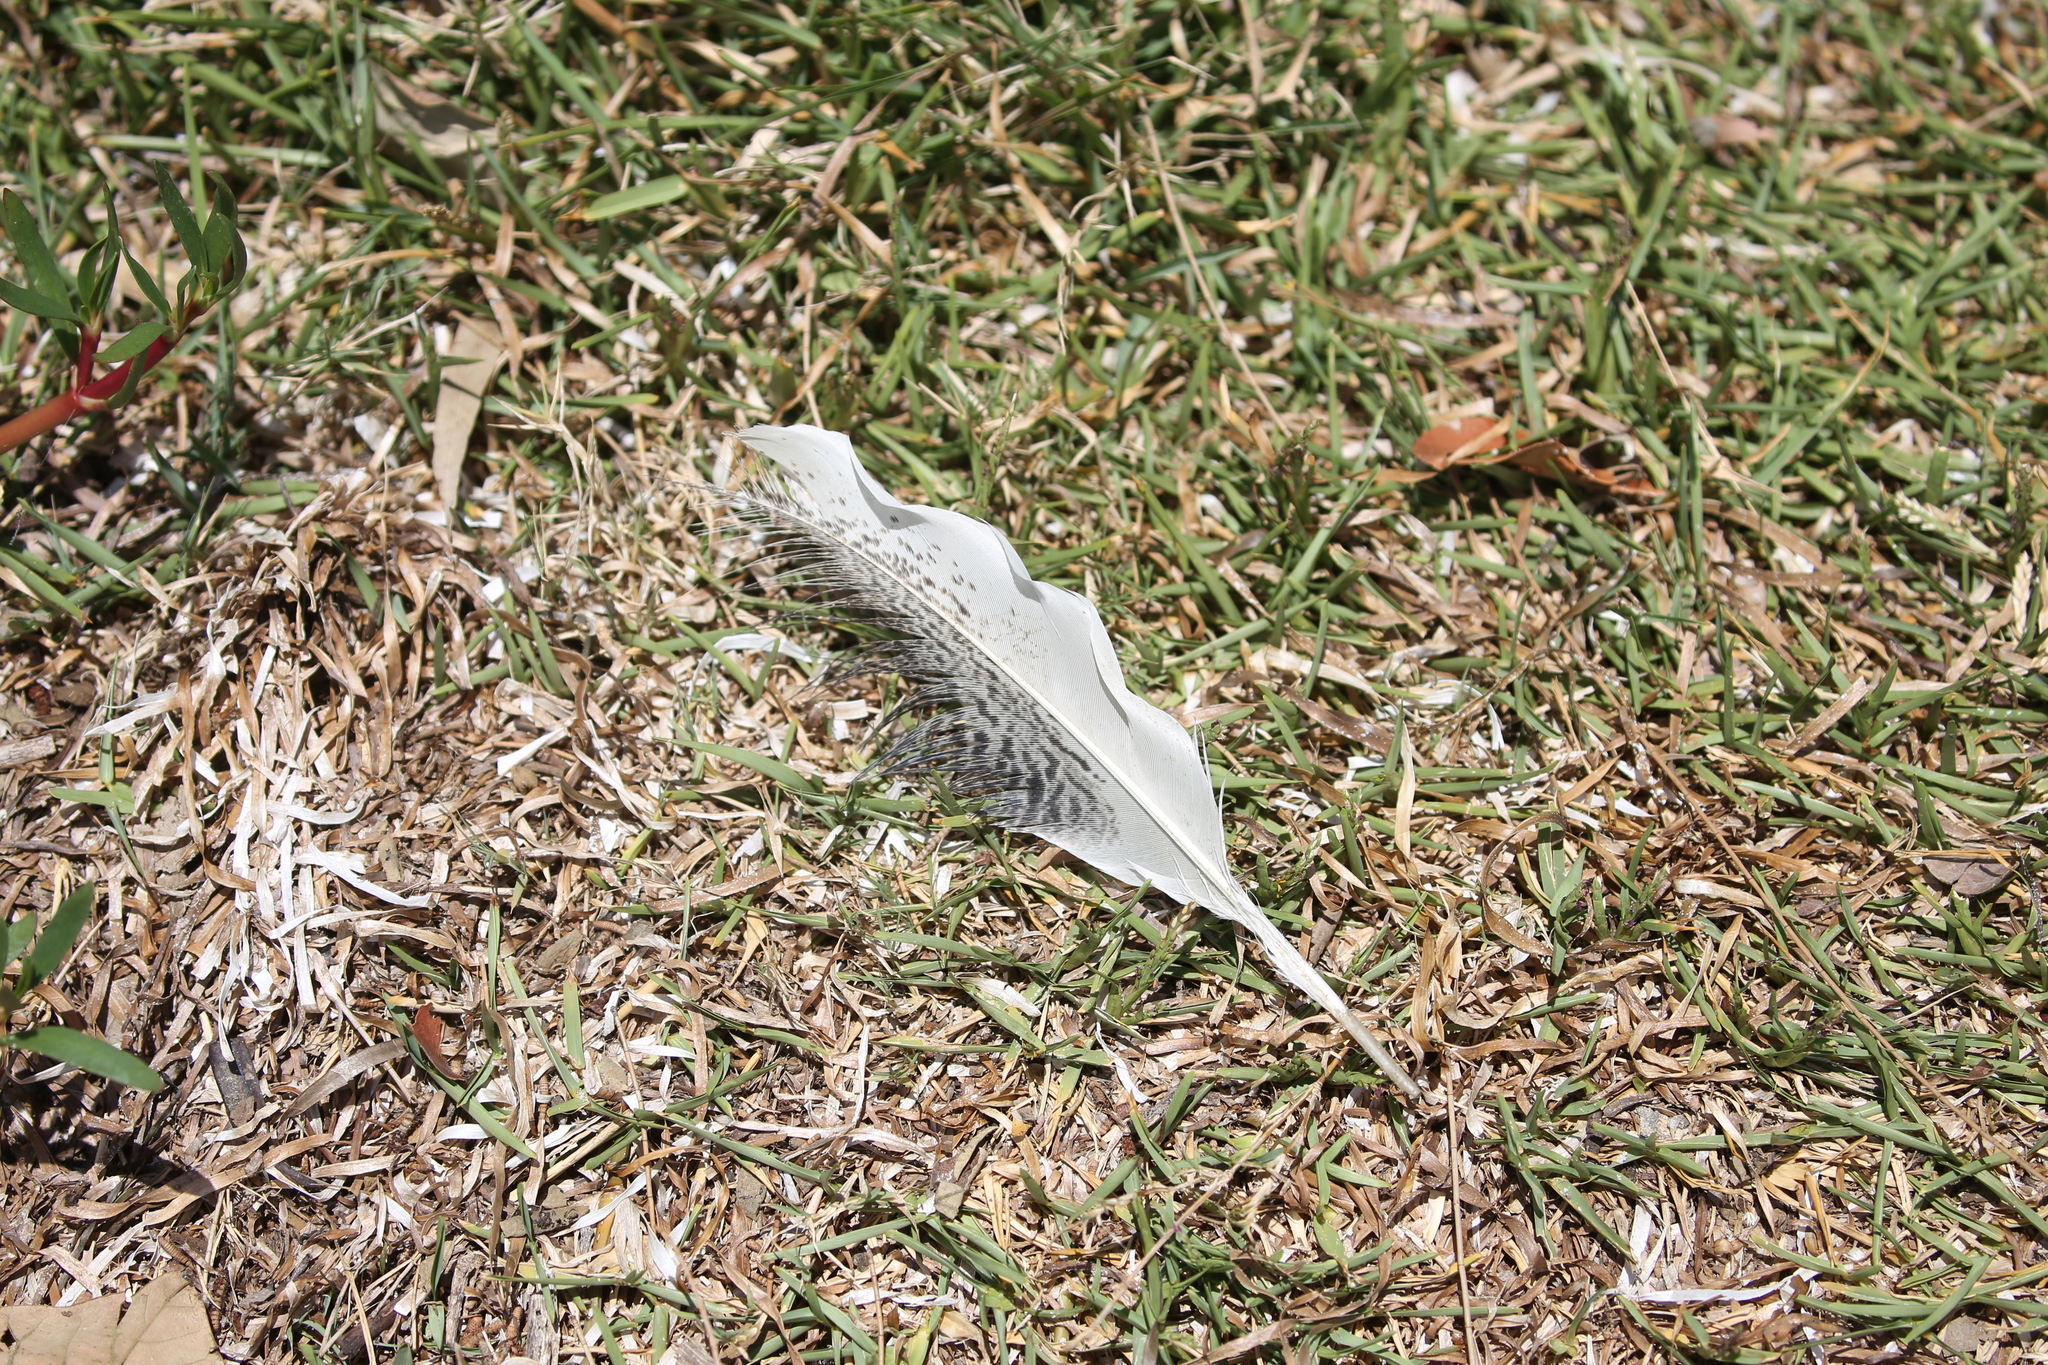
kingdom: Animalia
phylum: Chordata
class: Aves
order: Pelecaniformes
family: Threskiornithidae
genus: Threskiornis
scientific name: Threskiornis molucca
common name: Australian white ibis
